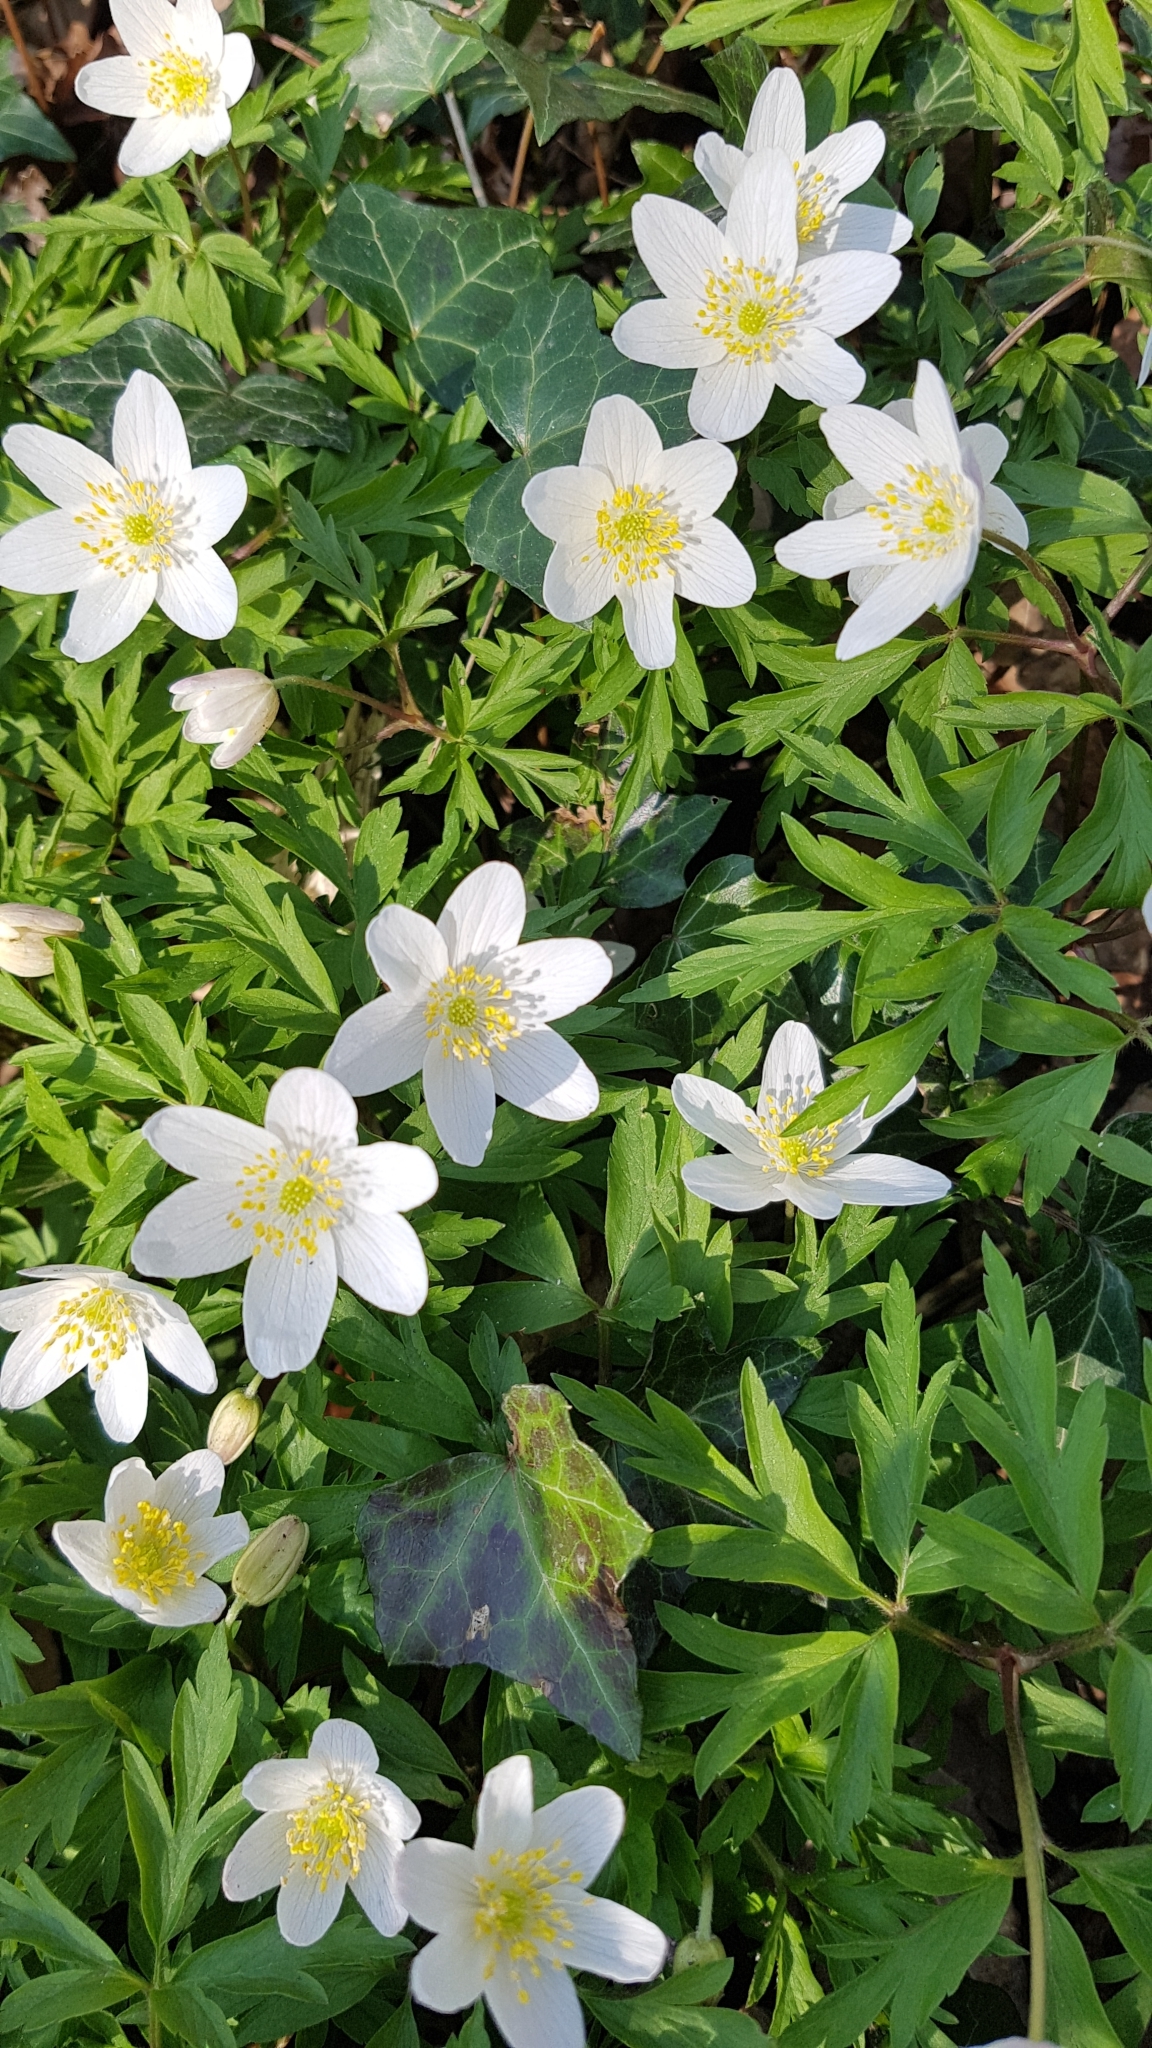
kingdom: Plantae
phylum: Tracheophyta
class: Magnoliopsida
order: Ranunculales
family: Ranunculaceae
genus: Anemone
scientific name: Anemone nemorosa
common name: Wood anemone
